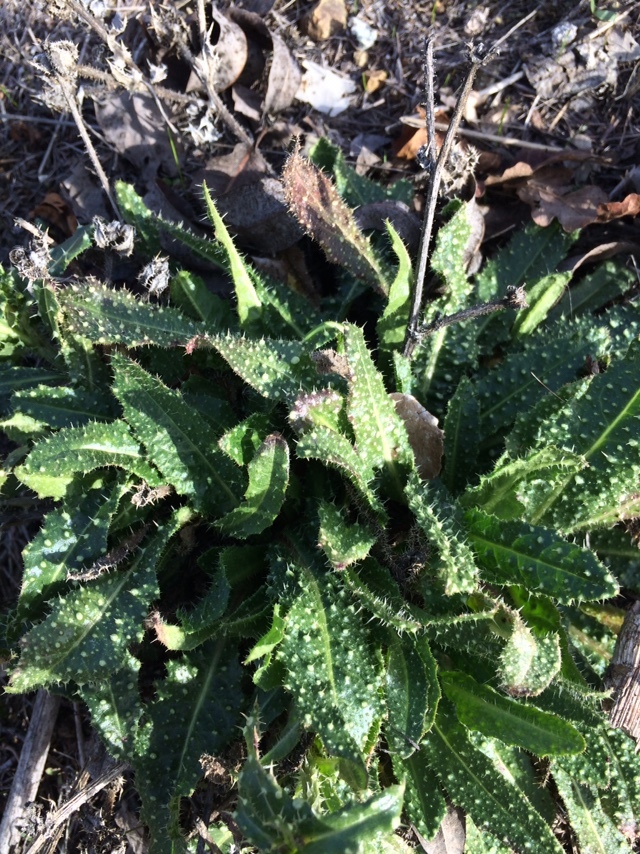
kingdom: Plantae
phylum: Tracheophyta
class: Magnoliopsida
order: Asterales
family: Asteraceae
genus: Helminthotheca
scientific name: Helminthotheca echioides
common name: Ox-tongue
